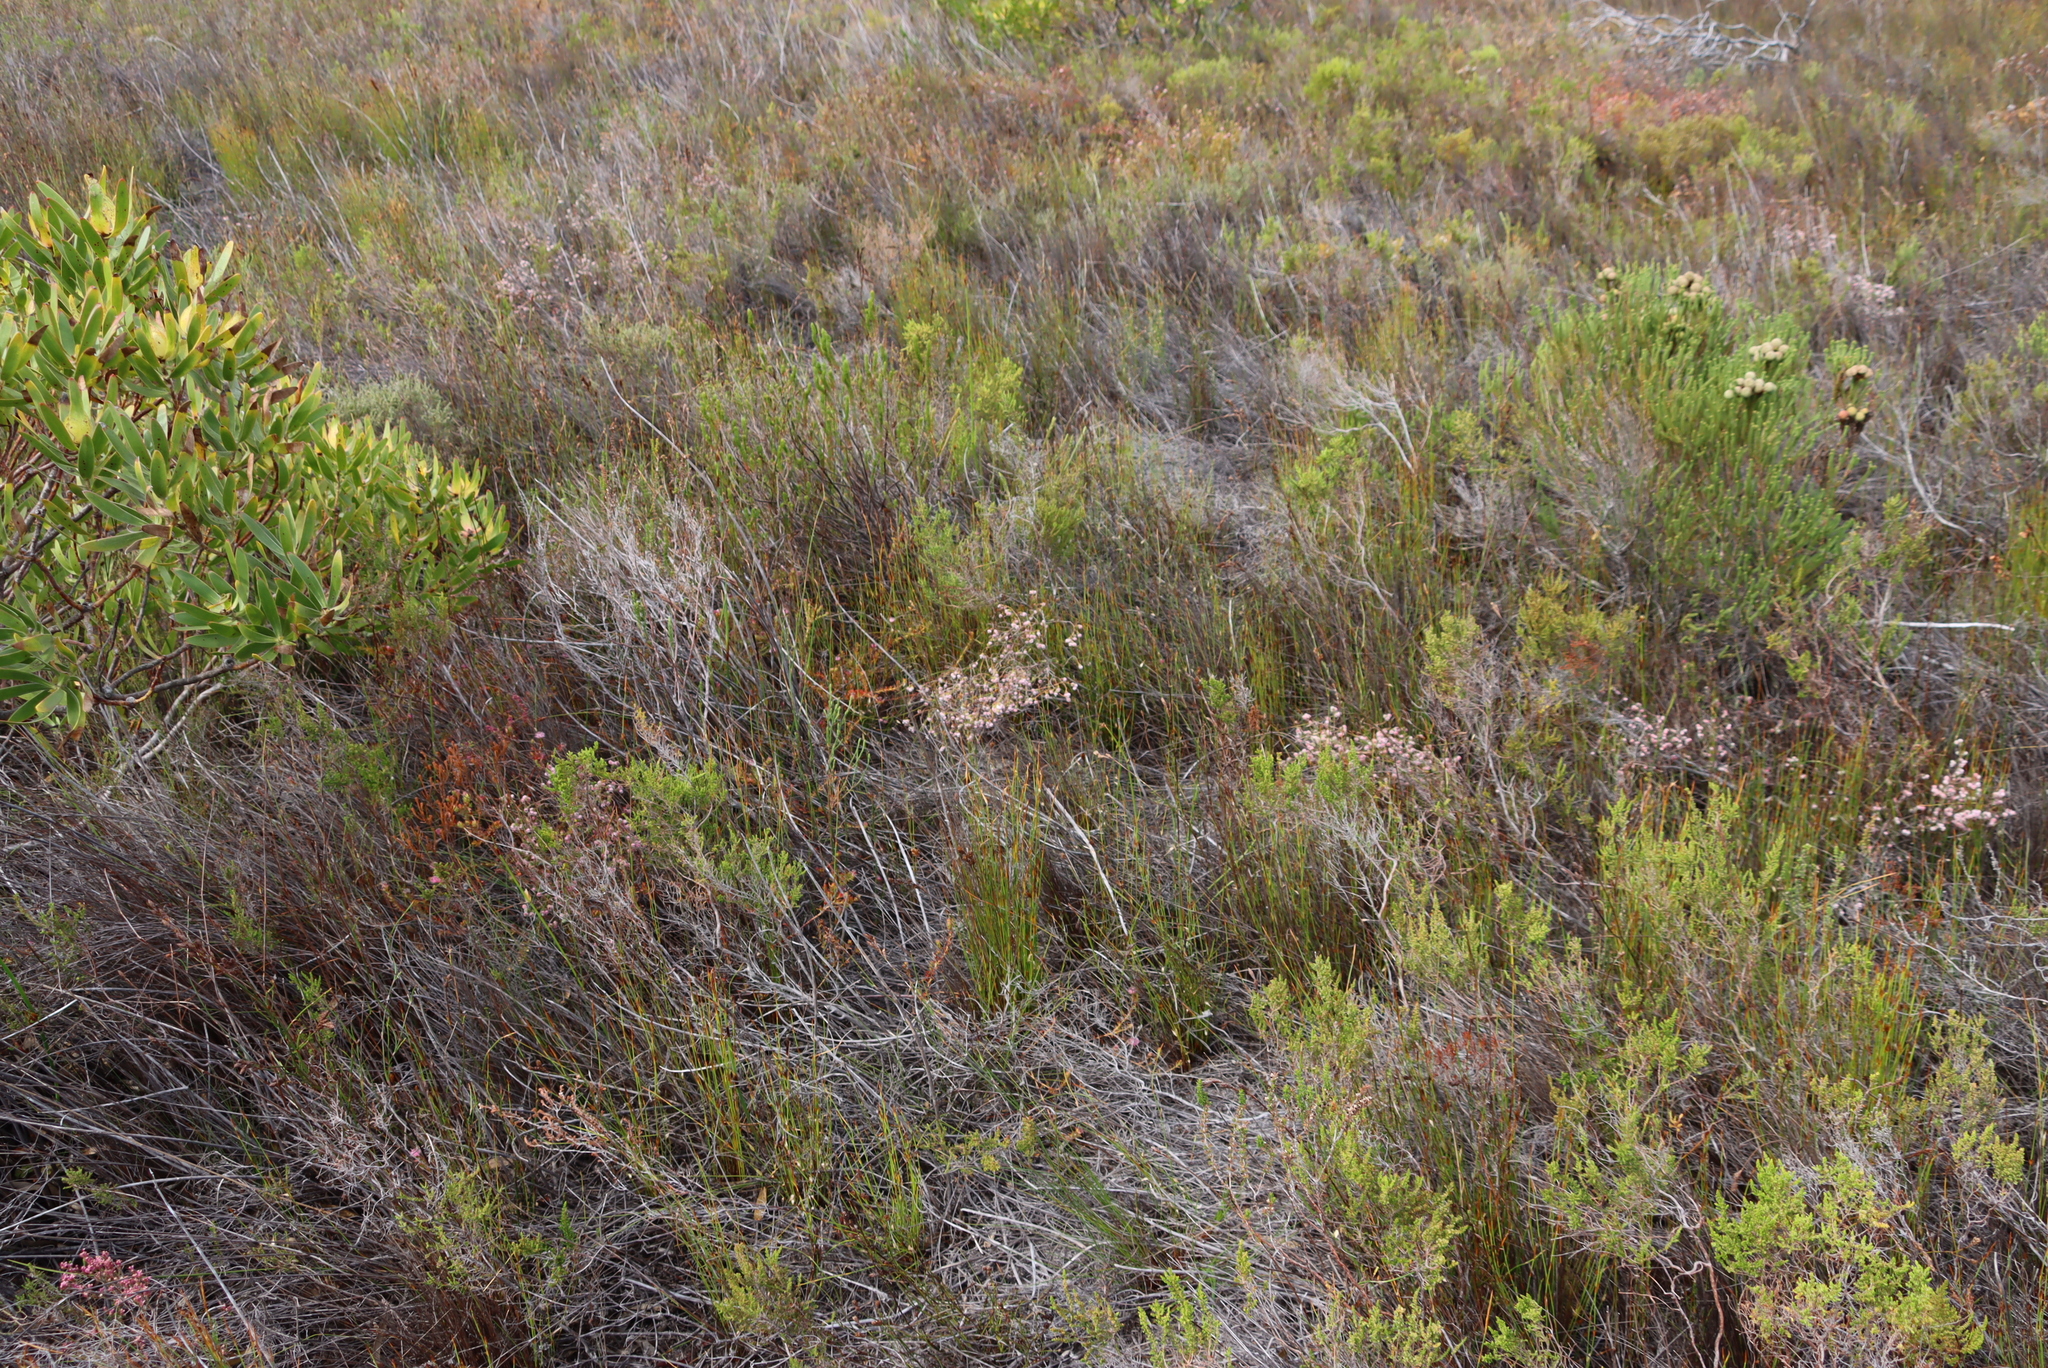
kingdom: Plantae
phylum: Tracheophyta
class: Magnoliopsida
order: Ericales
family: Ericaceae
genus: Erica
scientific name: Erica bruniades
